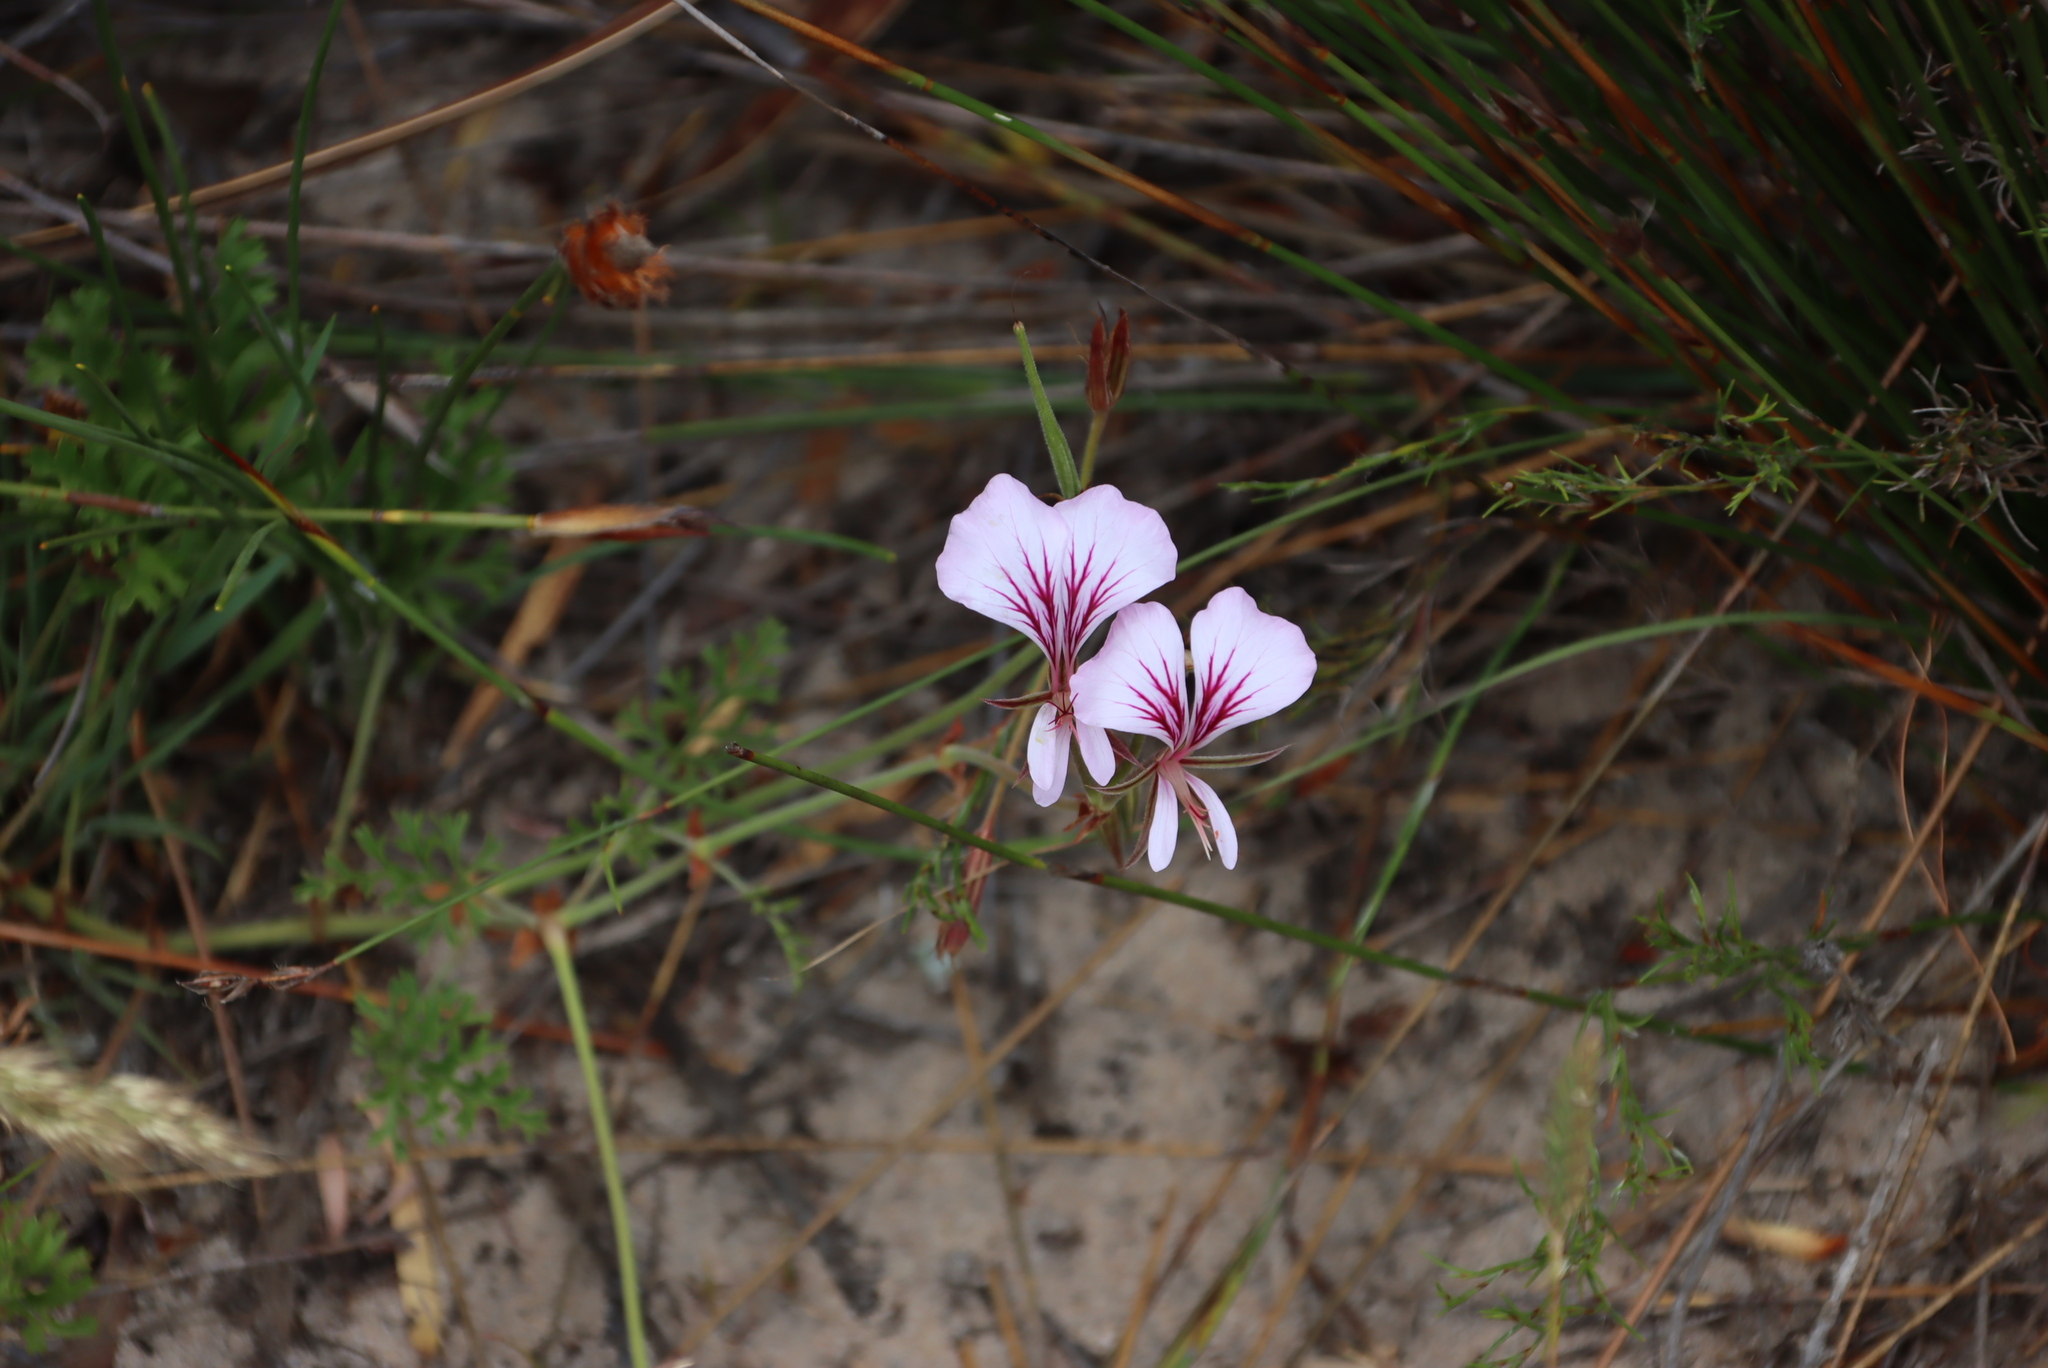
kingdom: Plantae
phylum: Tracheophyta
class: Magnoliopsida
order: Geraniales
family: Geraniaceae
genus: Pelargonium
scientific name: Pelargonium longicaule
